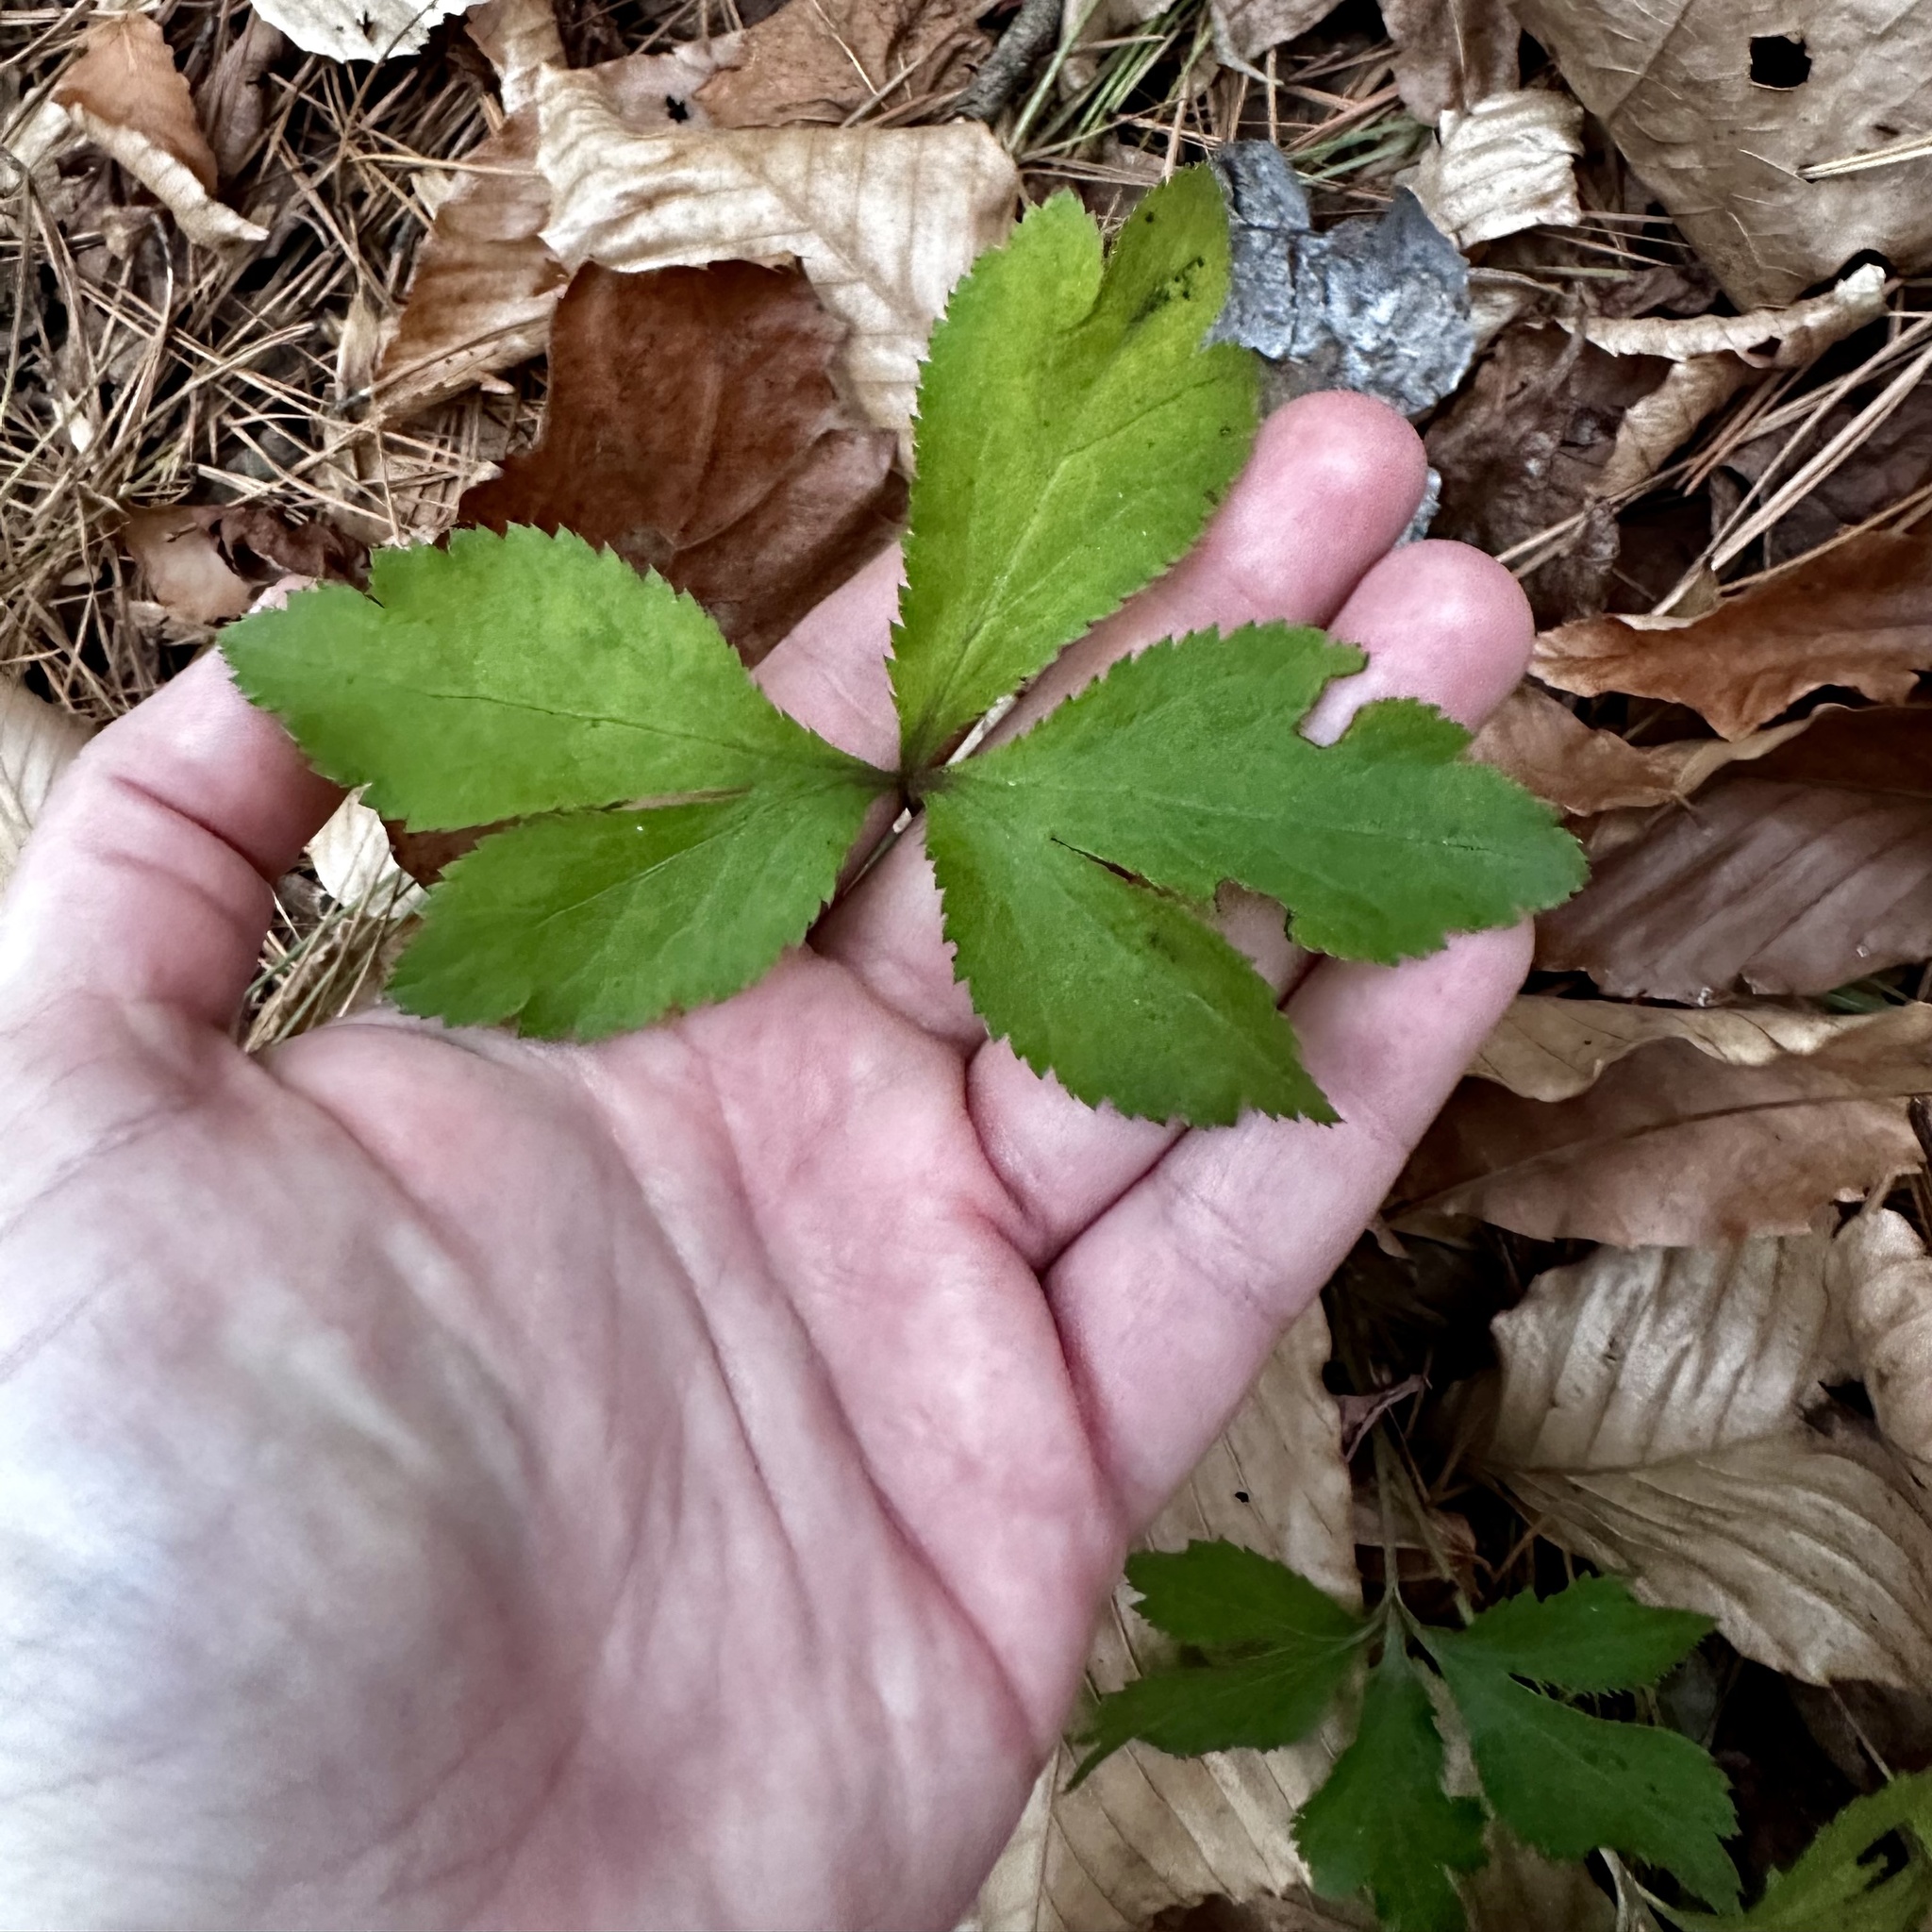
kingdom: Plantae
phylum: Tracheophyta
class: Magnoliopsida
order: Apiales
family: Apiaceae
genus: Sanicula
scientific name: Sanicula smallii
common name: Small's black snakeroot
